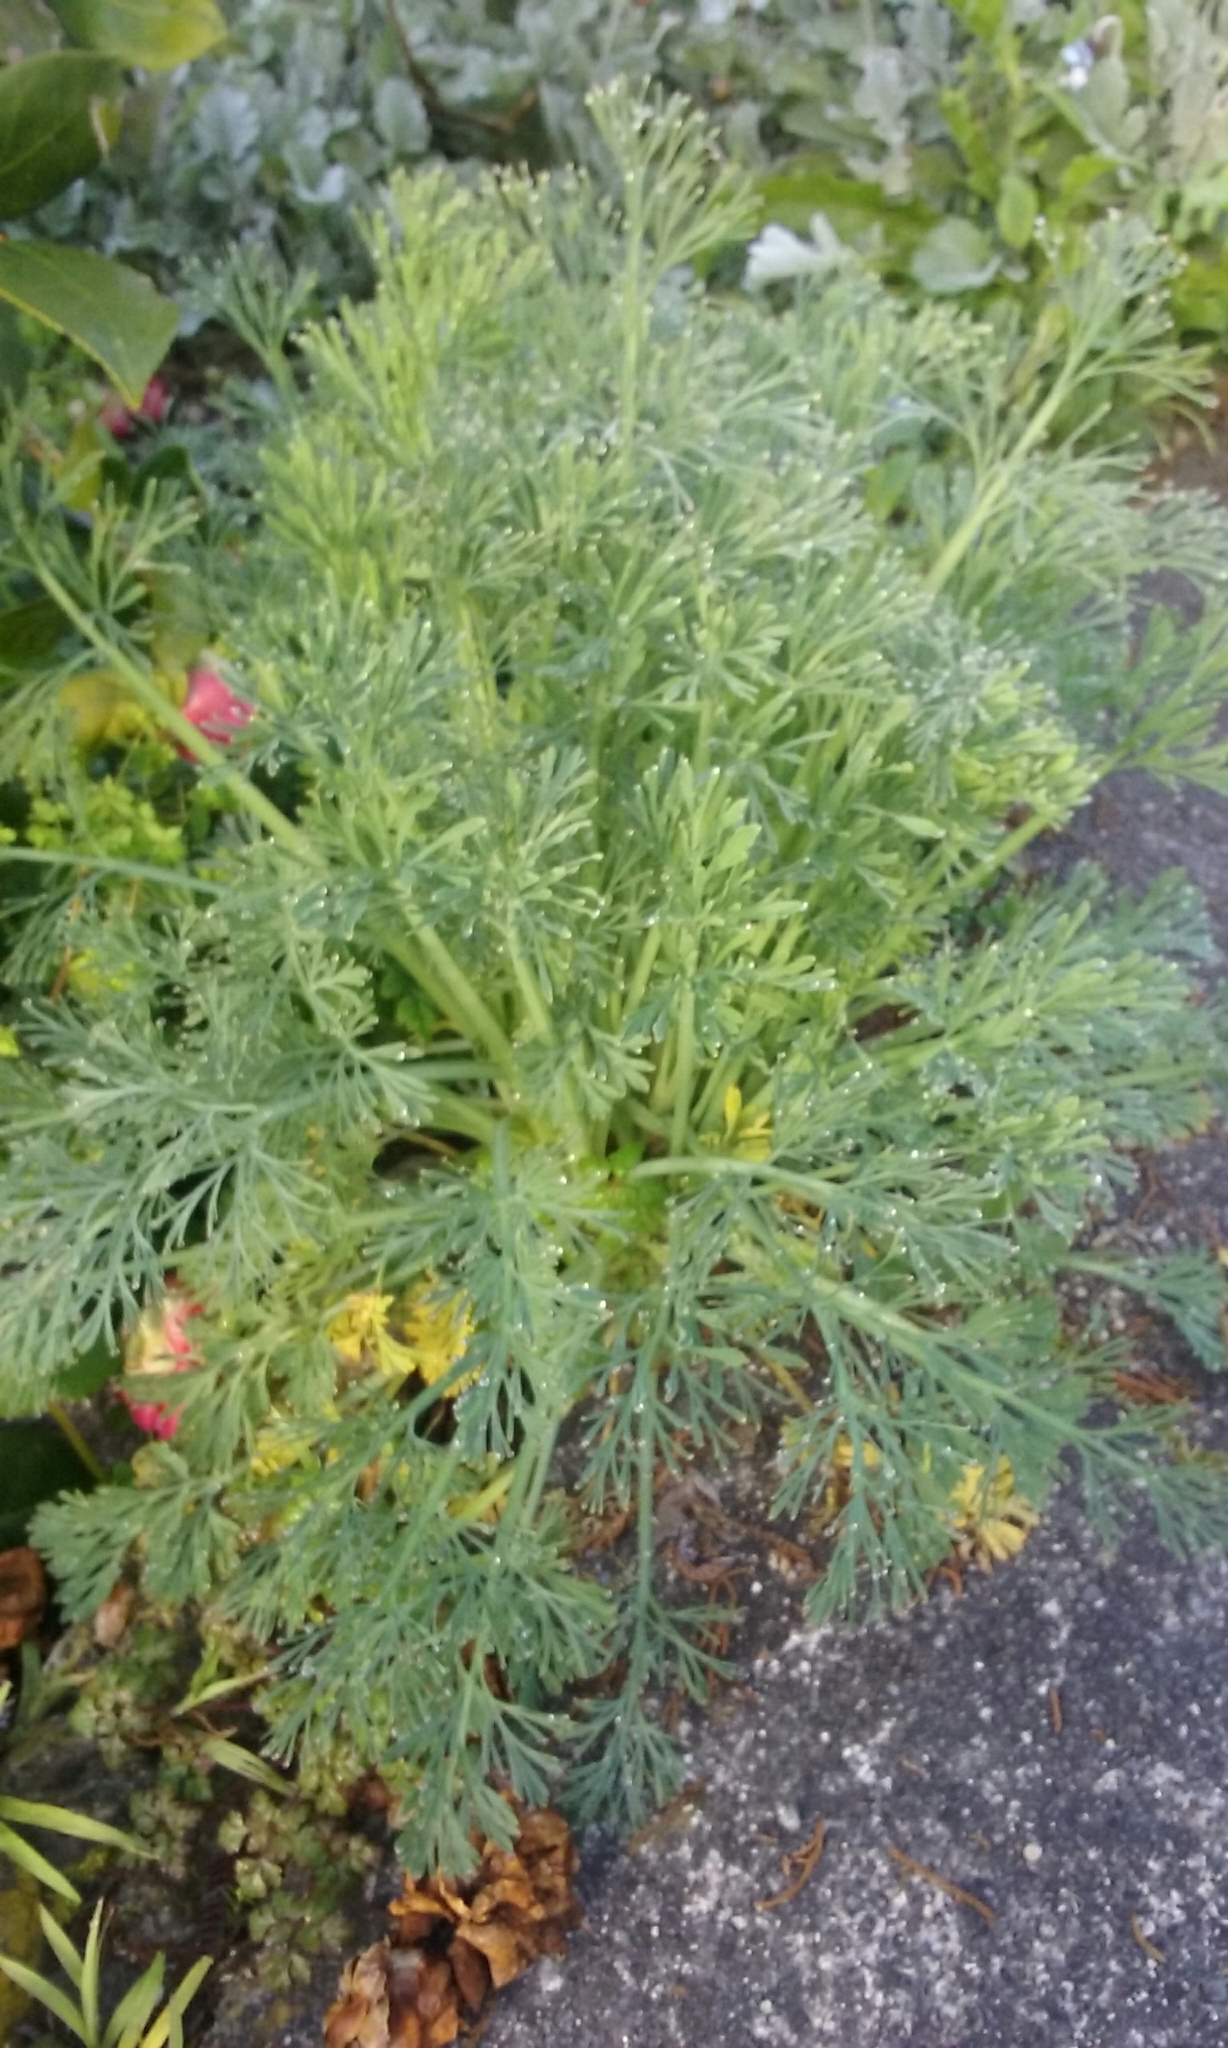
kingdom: Plantae
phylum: Tracheophyta
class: Magnoliopsida
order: Ranunculales
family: Papaveraceae
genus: Eschscholzia
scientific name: Eschscholzia californica
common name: California poppy
